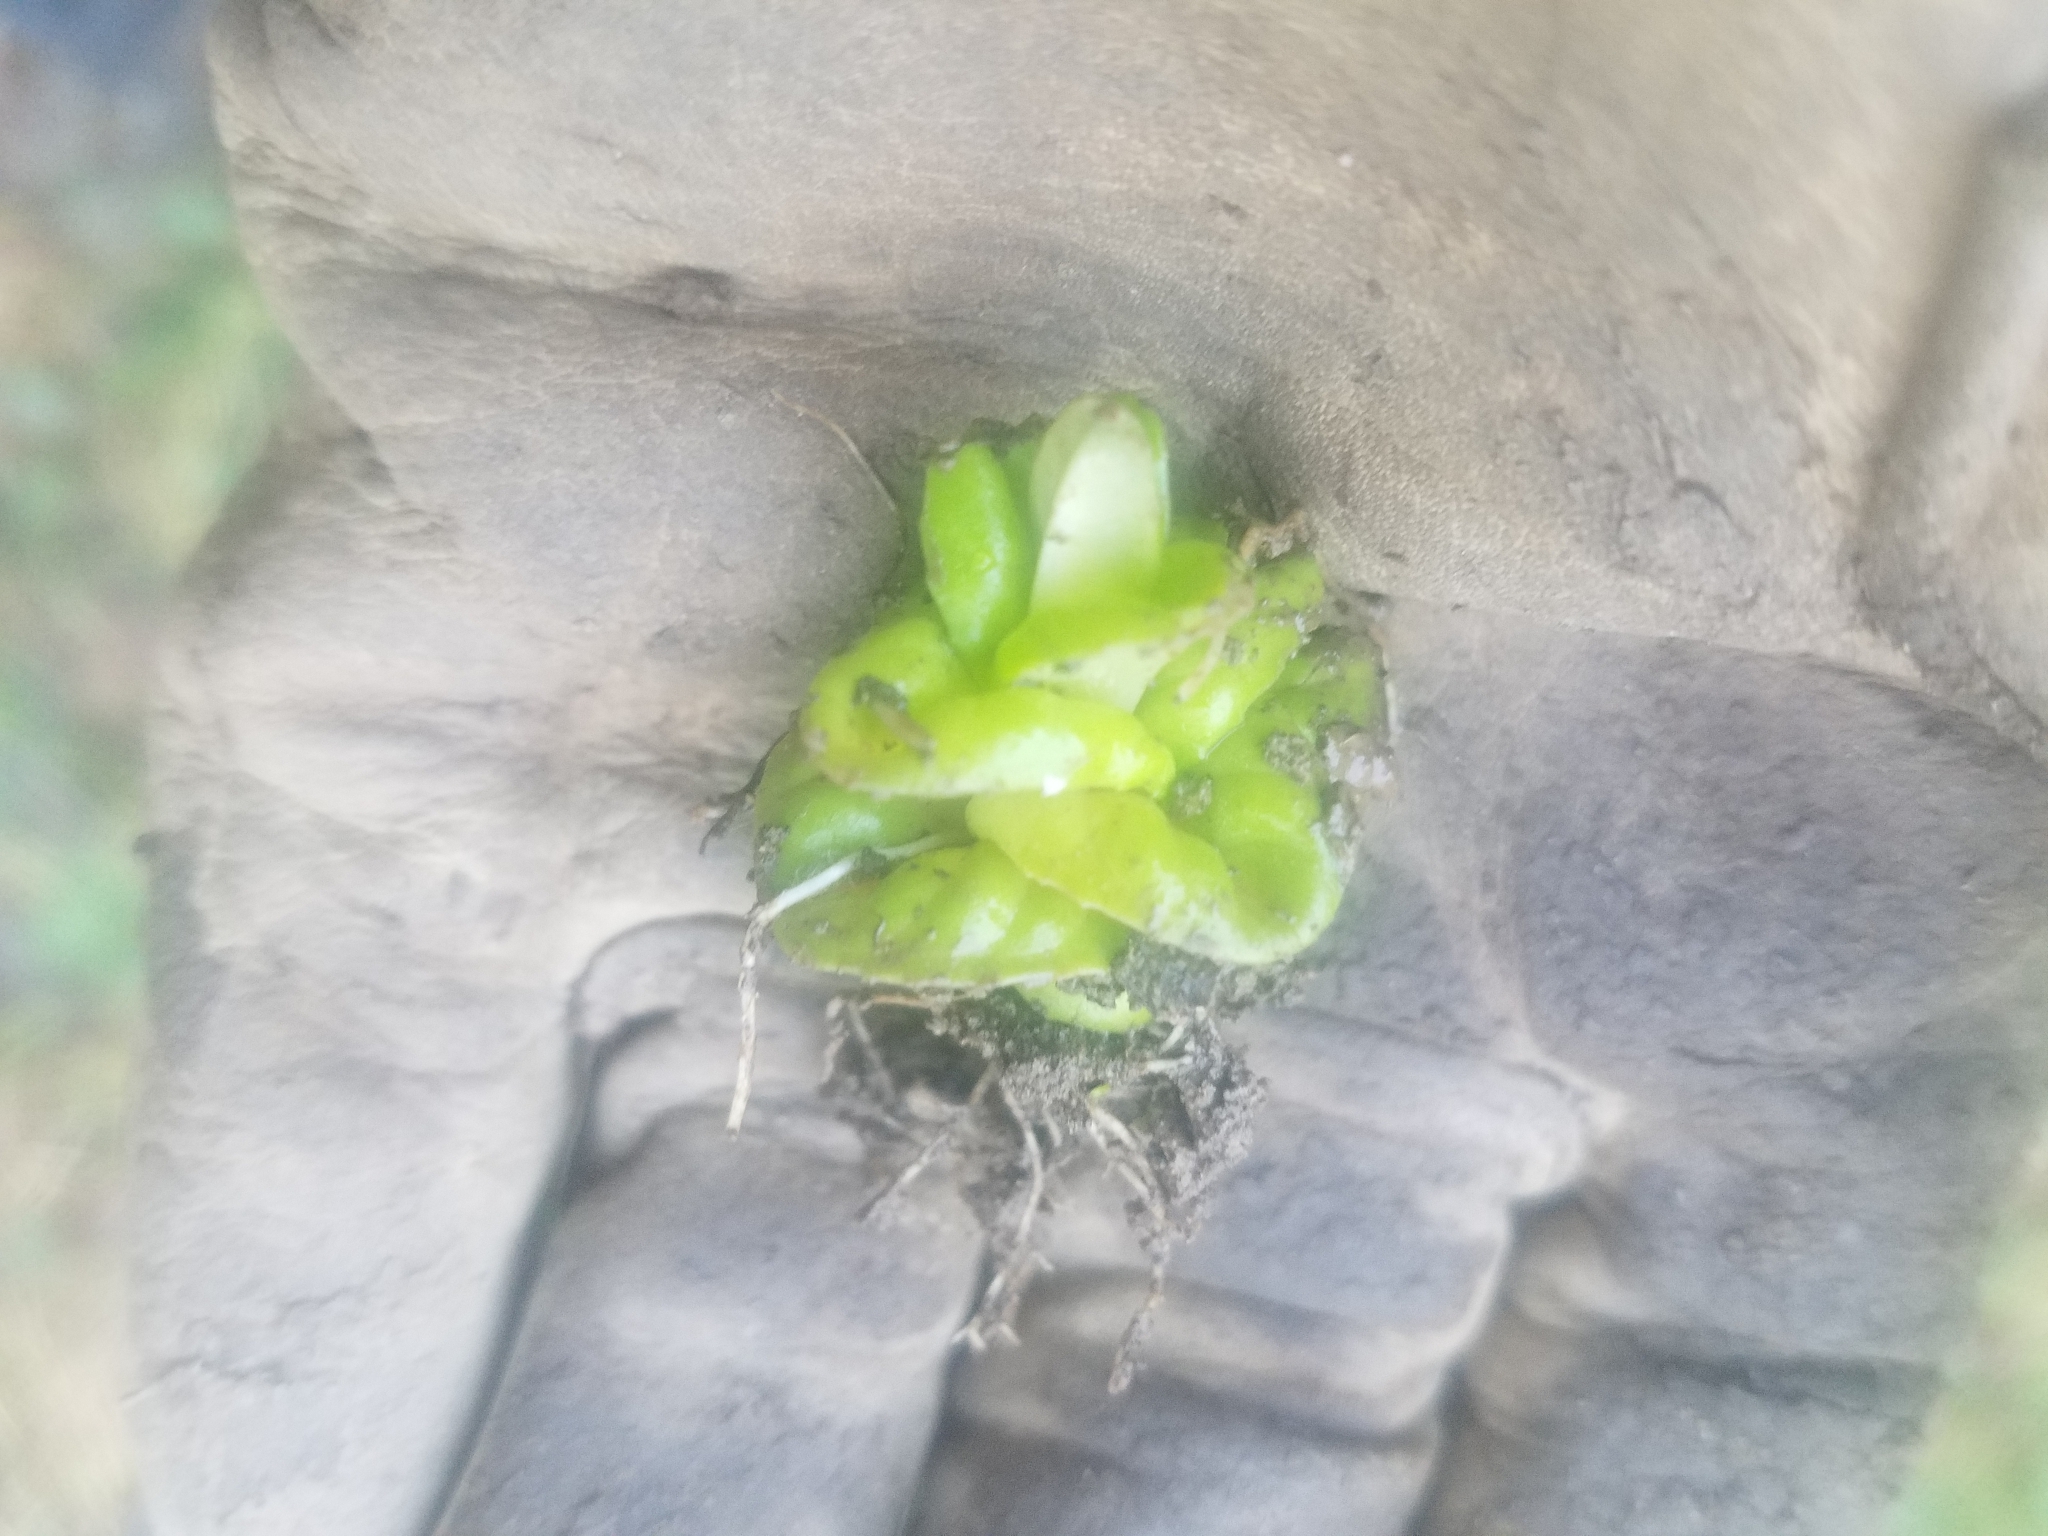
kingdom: Plantae
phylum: Tracheophyta
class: Magnoliopsida
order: Myrtales
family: Onagraceae
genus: Epilobium
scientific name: Epilobium ciliatum
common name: American willowherb
